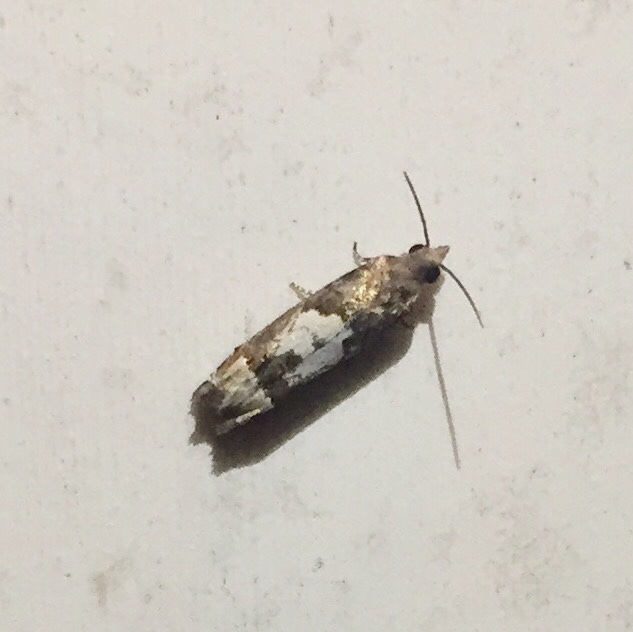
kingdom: Animalia
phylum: Arthropoda
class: Insecta
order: Lepidoptera
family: Tortricidae
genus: Eucosma
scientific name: Eucosma parmatana
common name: Aster eucosma moth
